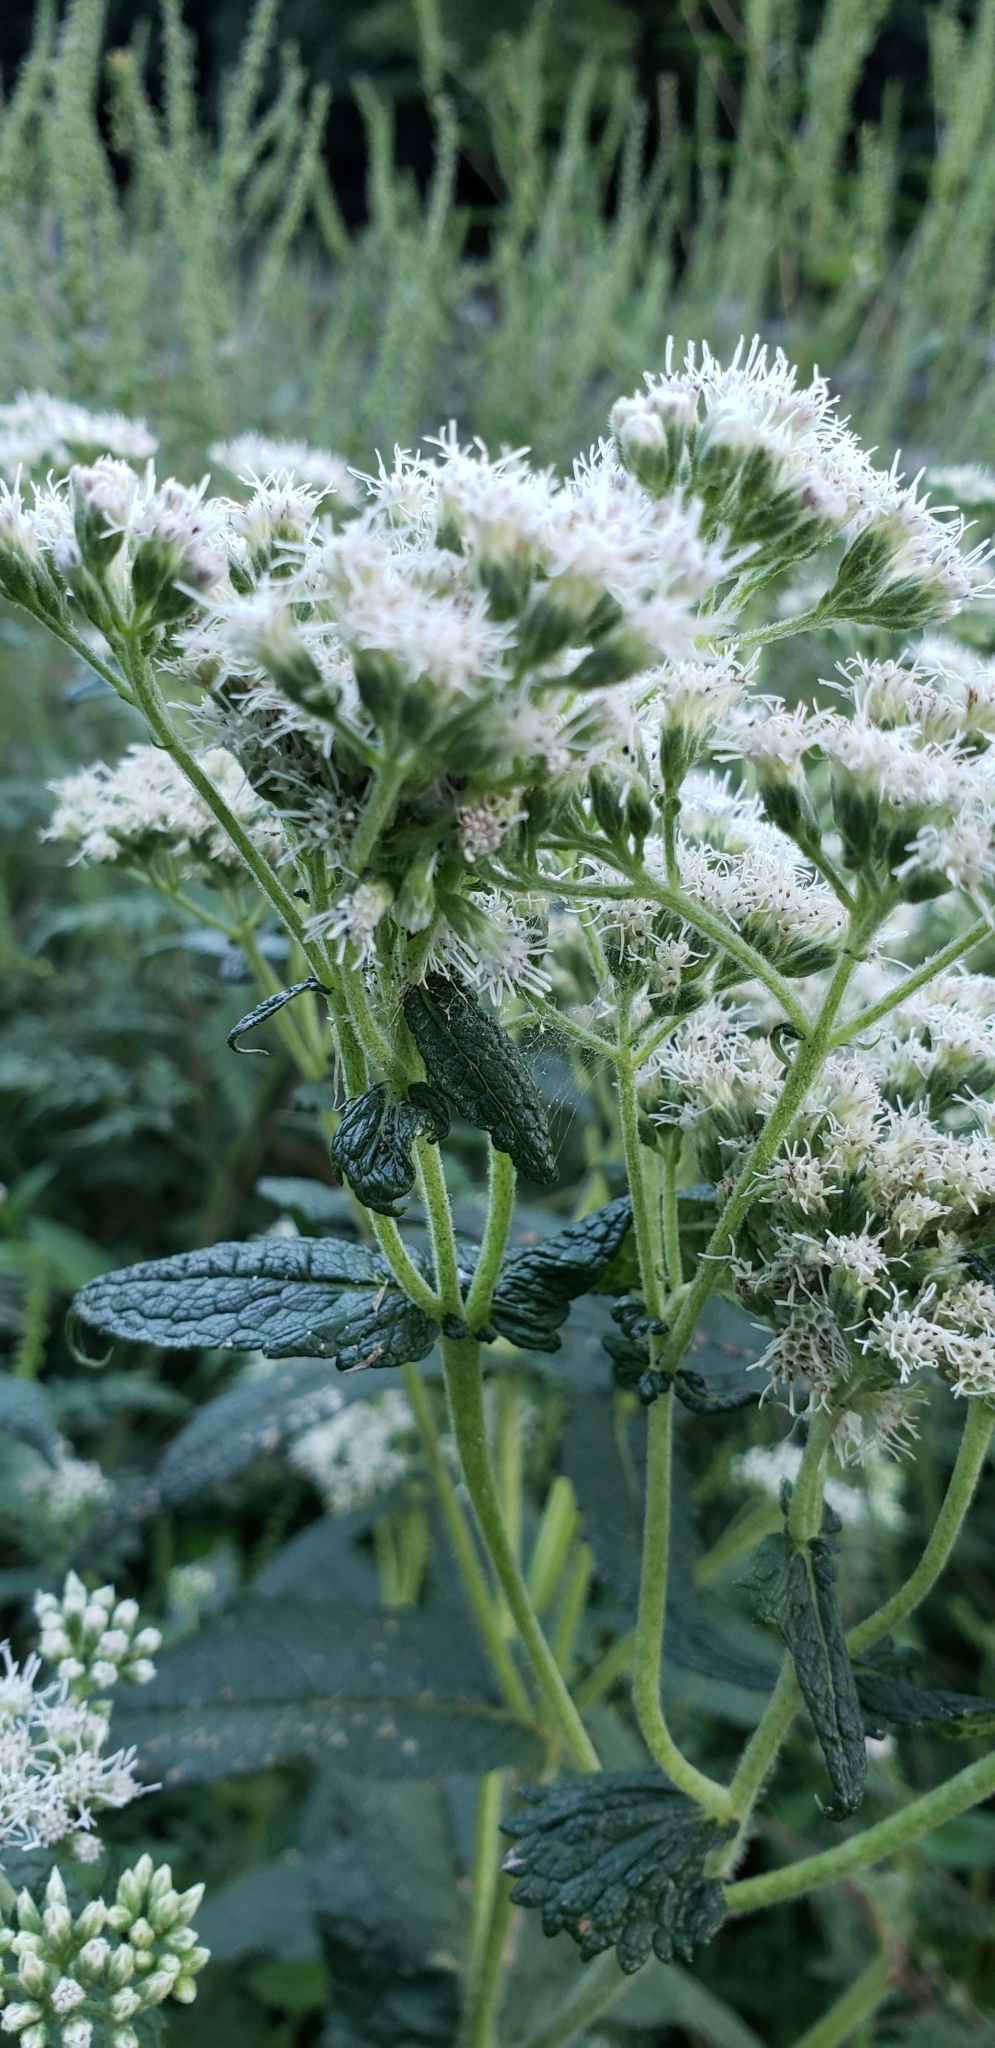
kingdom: Plantae
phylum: Tracheophyta
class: Magnoliopsida
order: Asterales
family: Asteraceae
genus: Eupatorium
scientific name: Eupatorium perfoliatum
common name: Boneset
